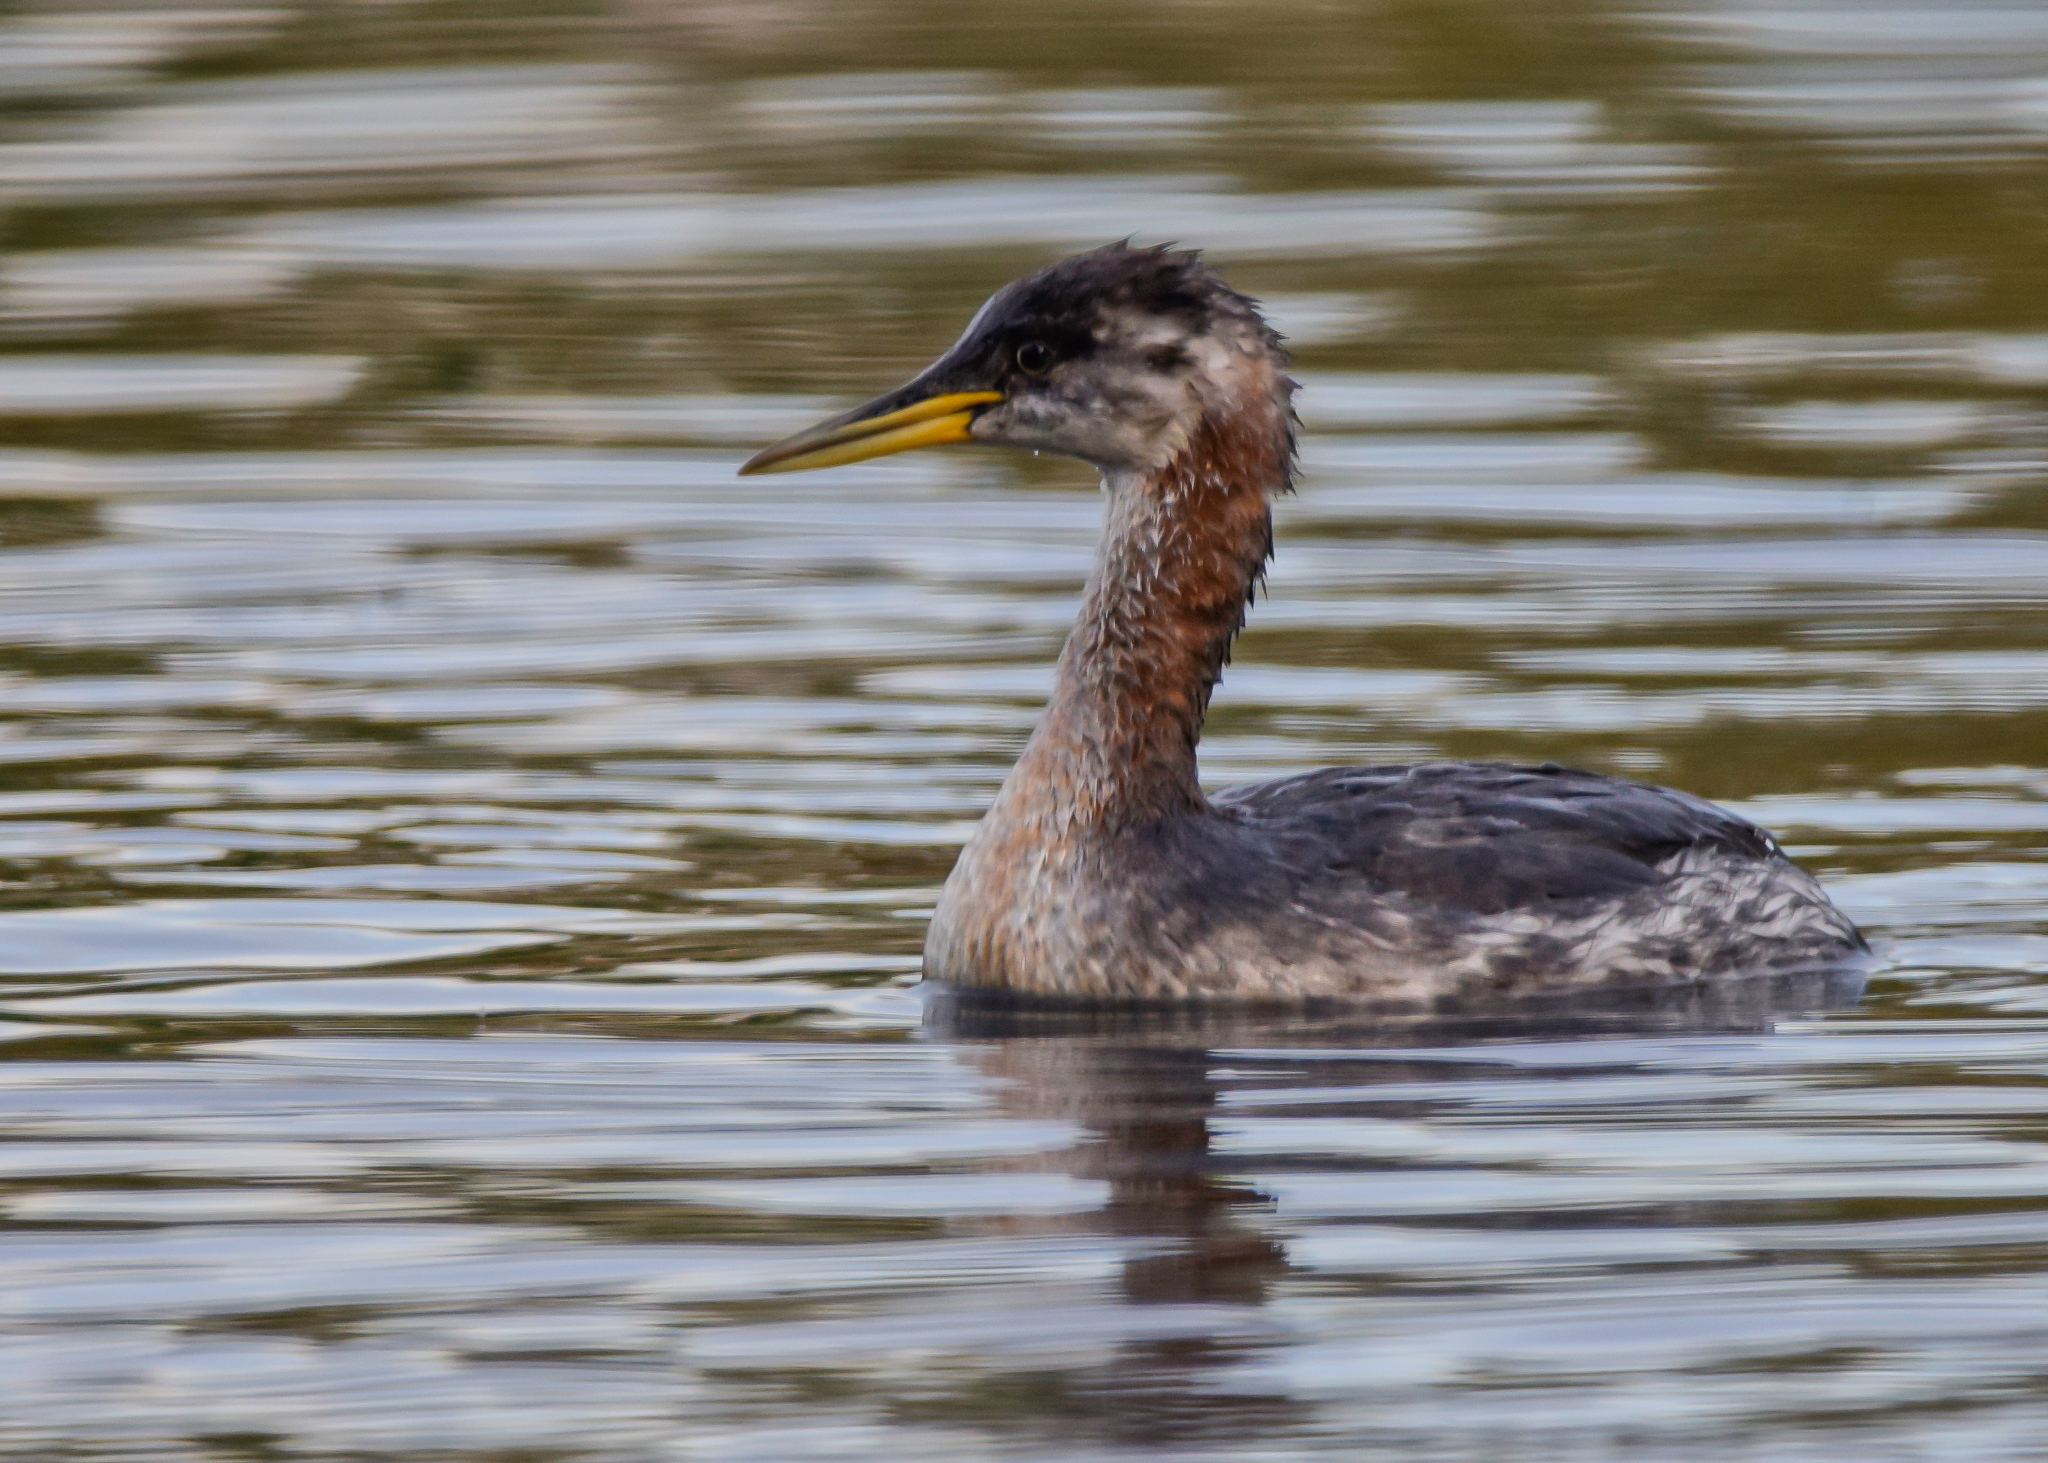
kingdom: Animalia
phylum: Chordata
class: Aves
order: Podicipediformes
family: Podicipedidae
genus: Podiceps
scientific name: Podiceps grisegena
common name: Red-necked grebe
